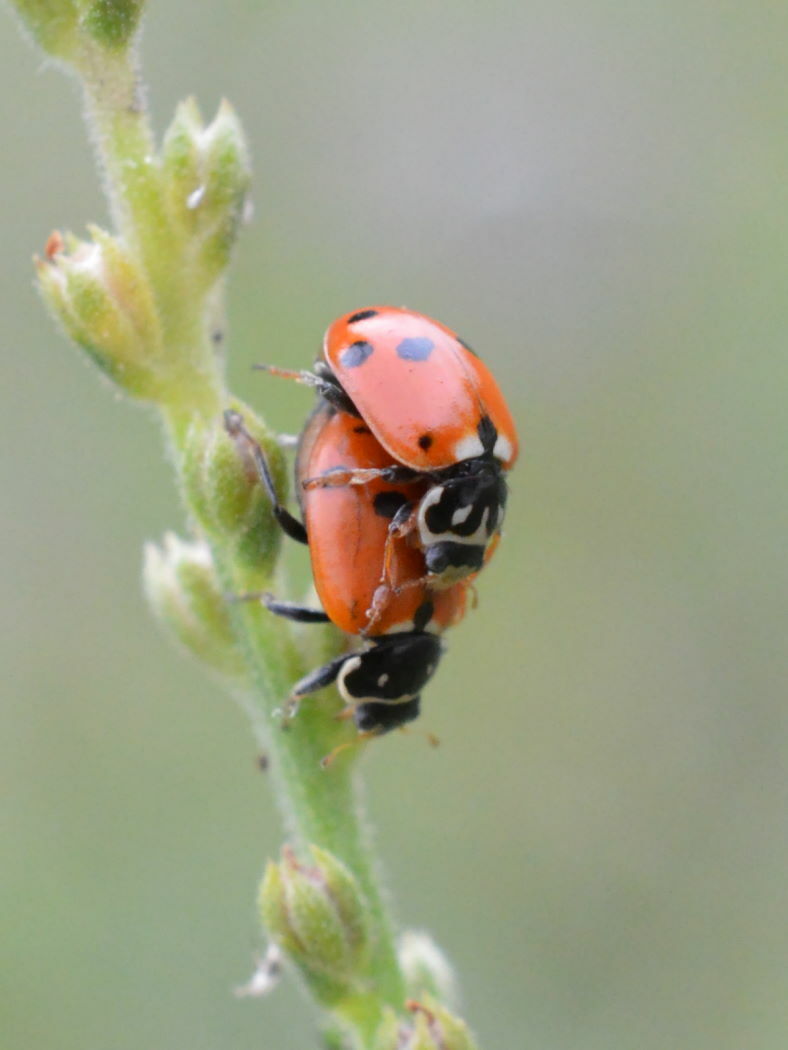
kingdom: Animalia
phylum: Arthropoda
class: Insecta
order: Coleoptera
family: Coccinellidae
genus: Hippodamia
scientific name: Hippodamia variegata
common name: Ladybird beetle
